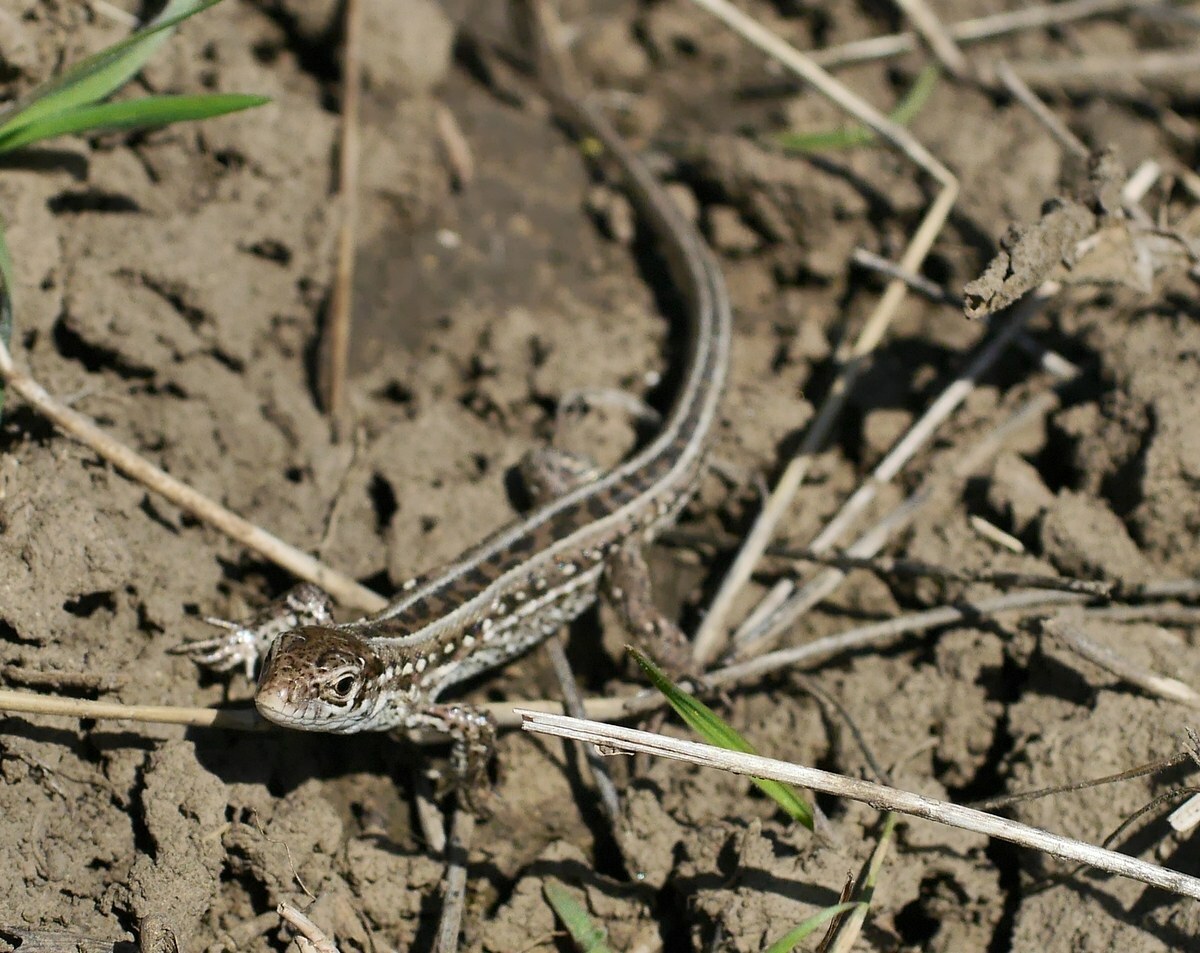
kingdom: Animalia
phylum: Chordata
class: Squamata
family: Lacertidae
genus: Lacerta
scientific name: Lacerta agilis
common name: Sand lizard
